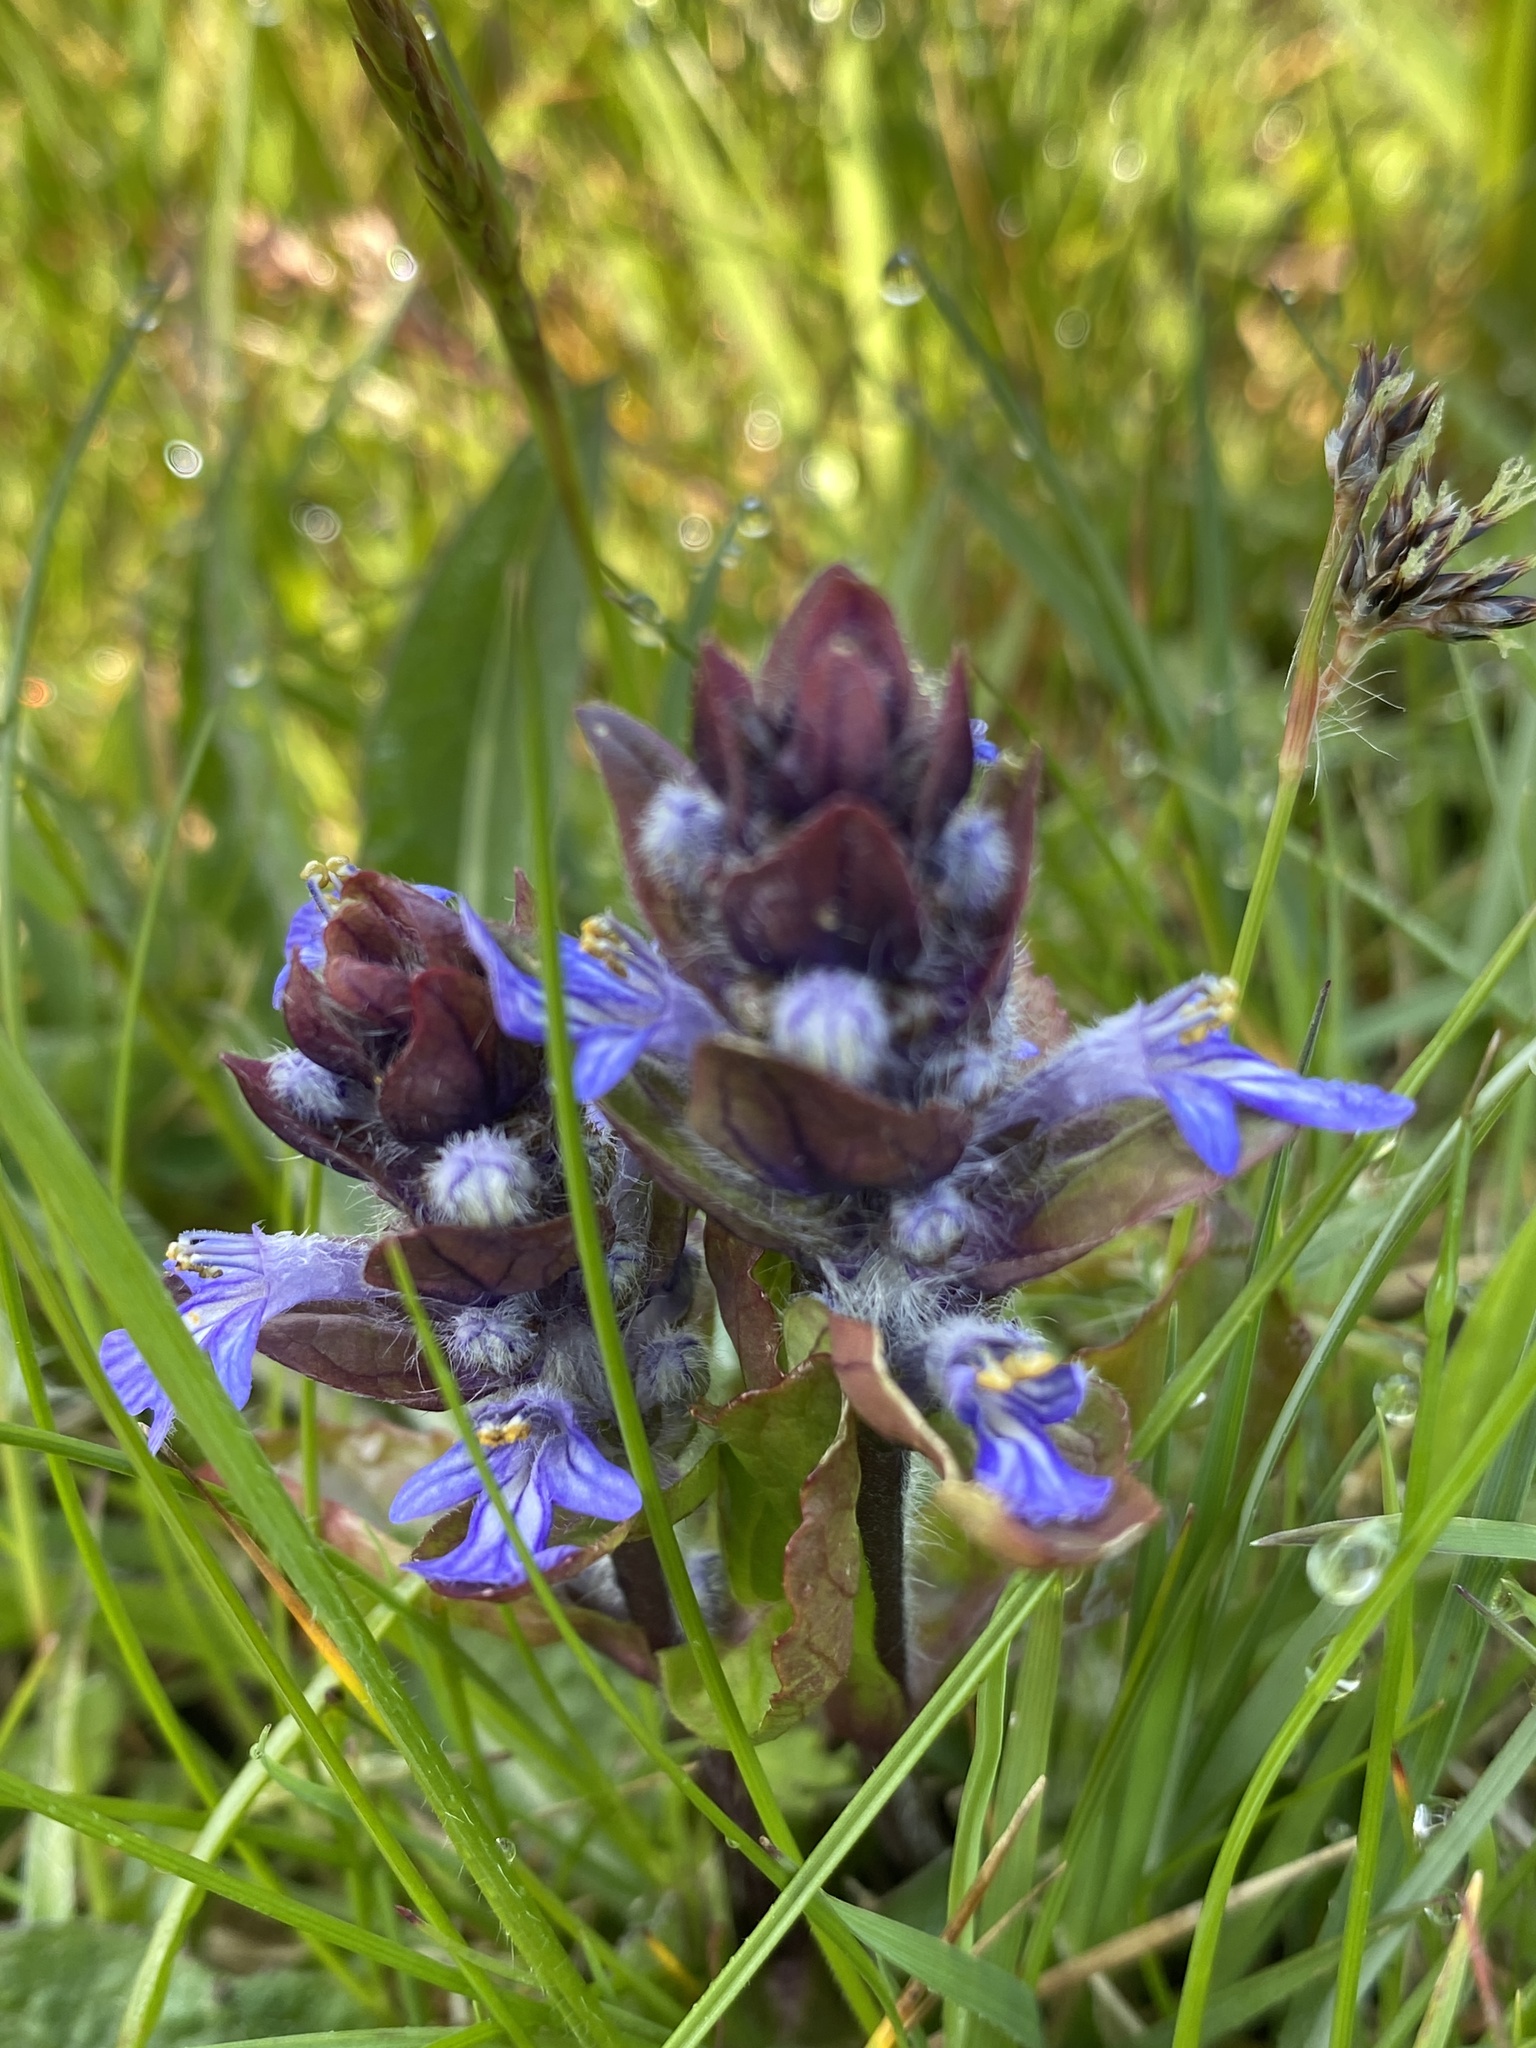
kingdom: Plantae
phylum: Tracheophyta
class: Magnoliopsida
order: Lamiales
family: Lamiaceae
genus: Ajuga
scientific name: Ajuga reptans
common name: Bugle
